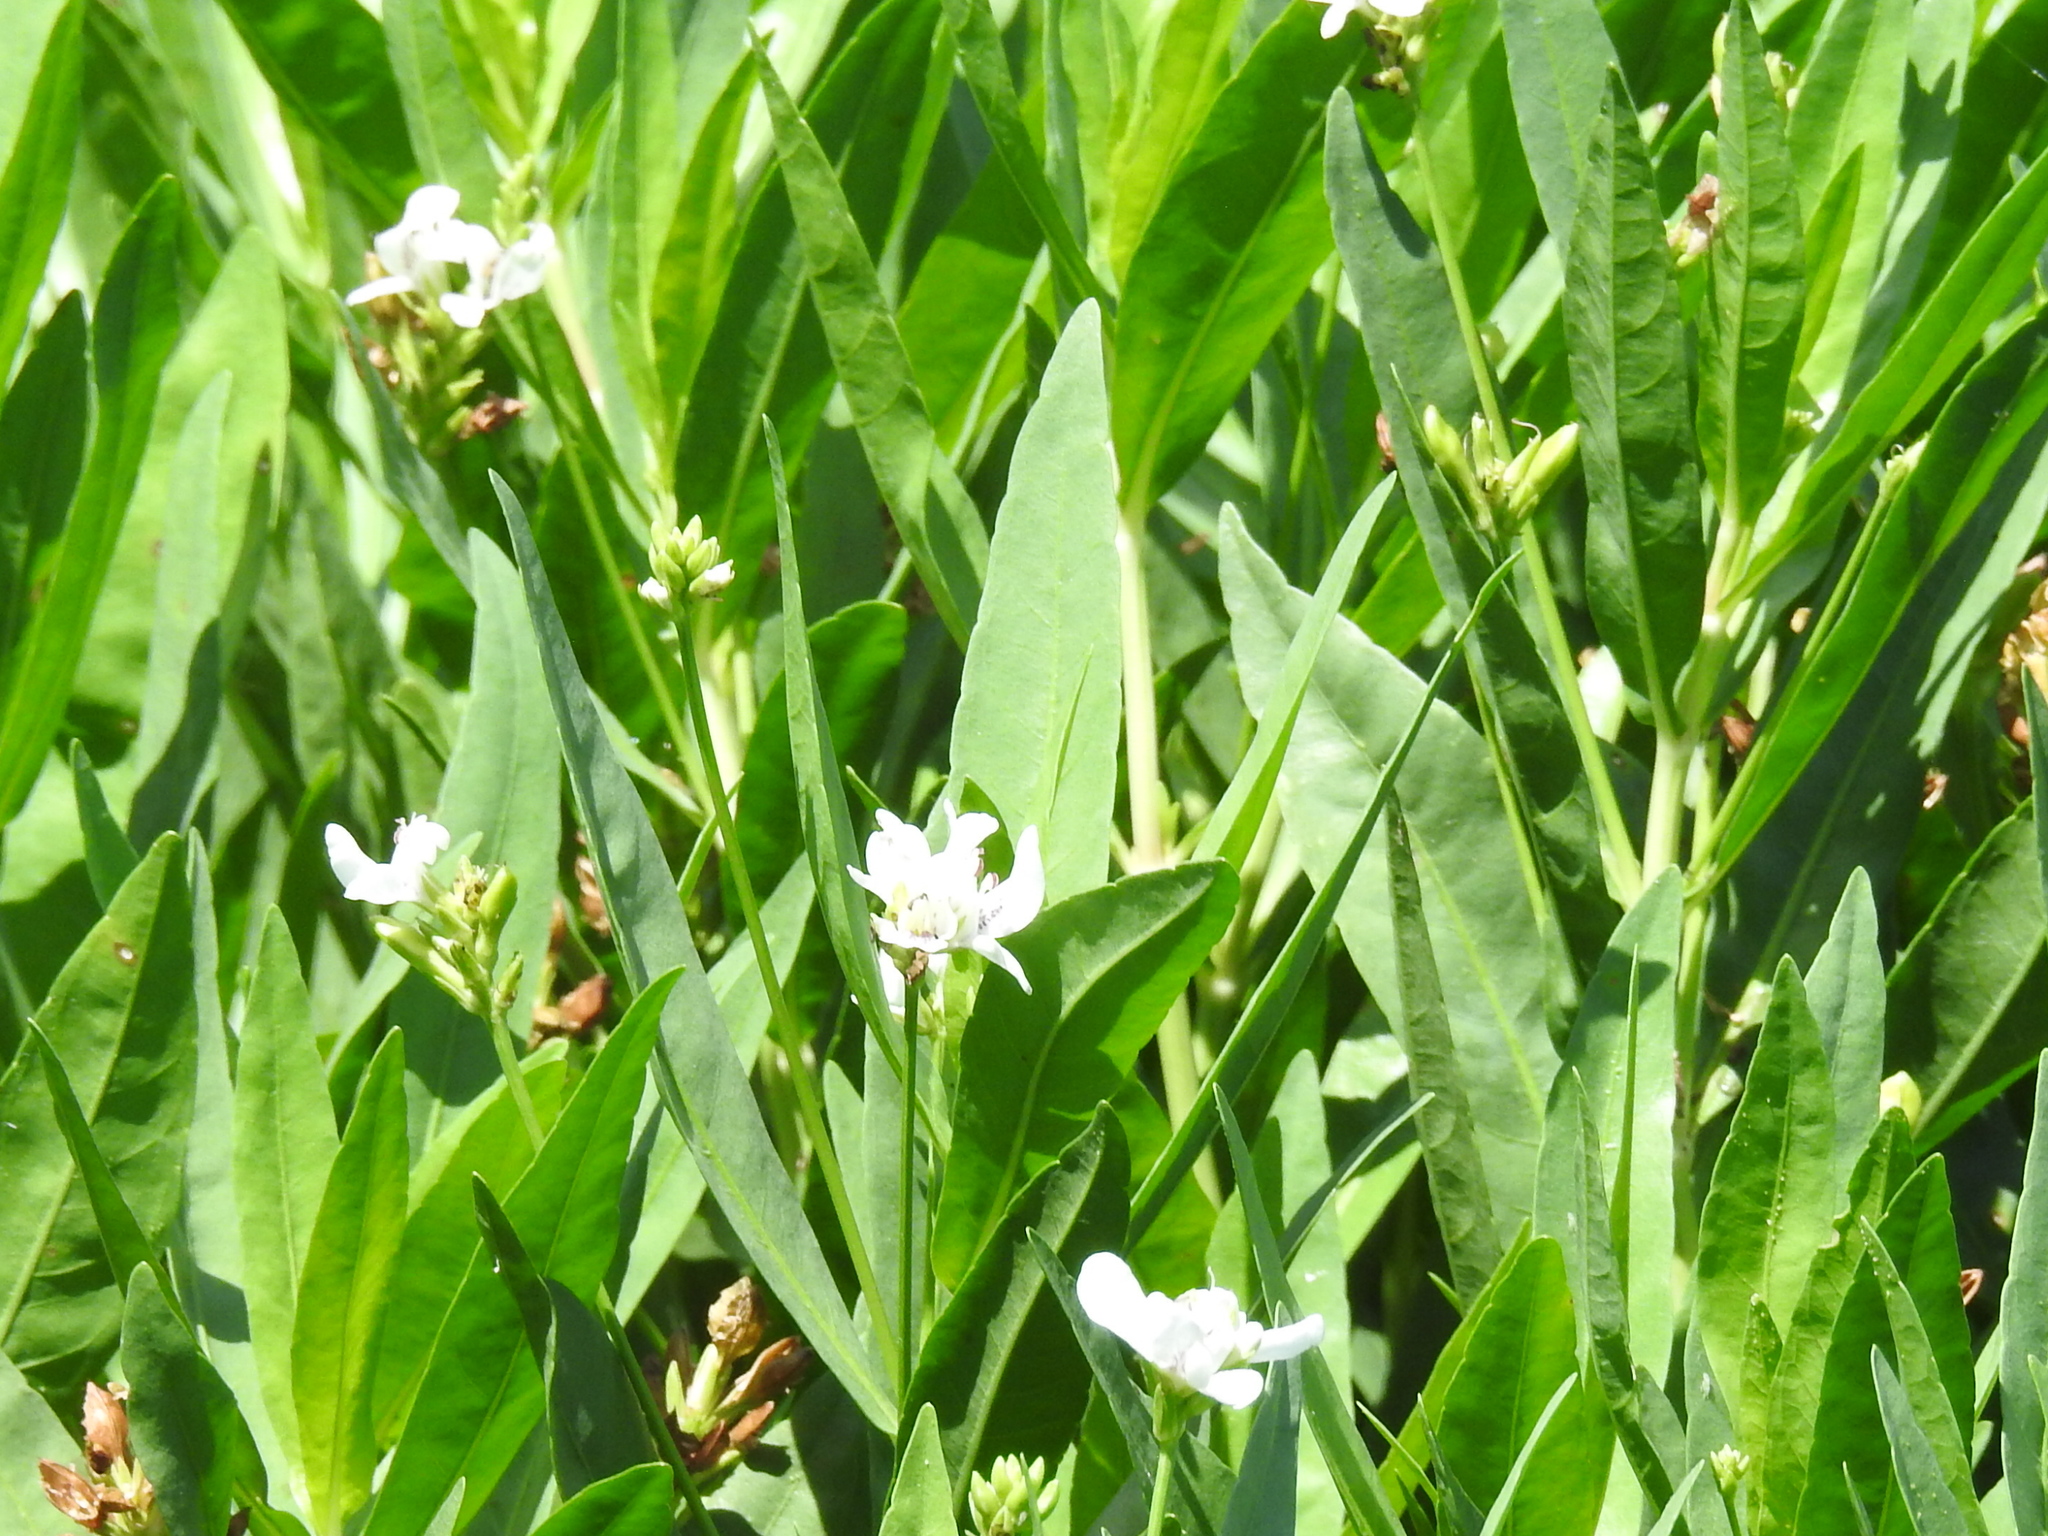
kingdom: Plantae
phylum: Tracheophyta
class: Magnoliopsida
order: Lamiales
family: Acanthaceae
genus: Dianthera
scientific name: Dianthera americana
